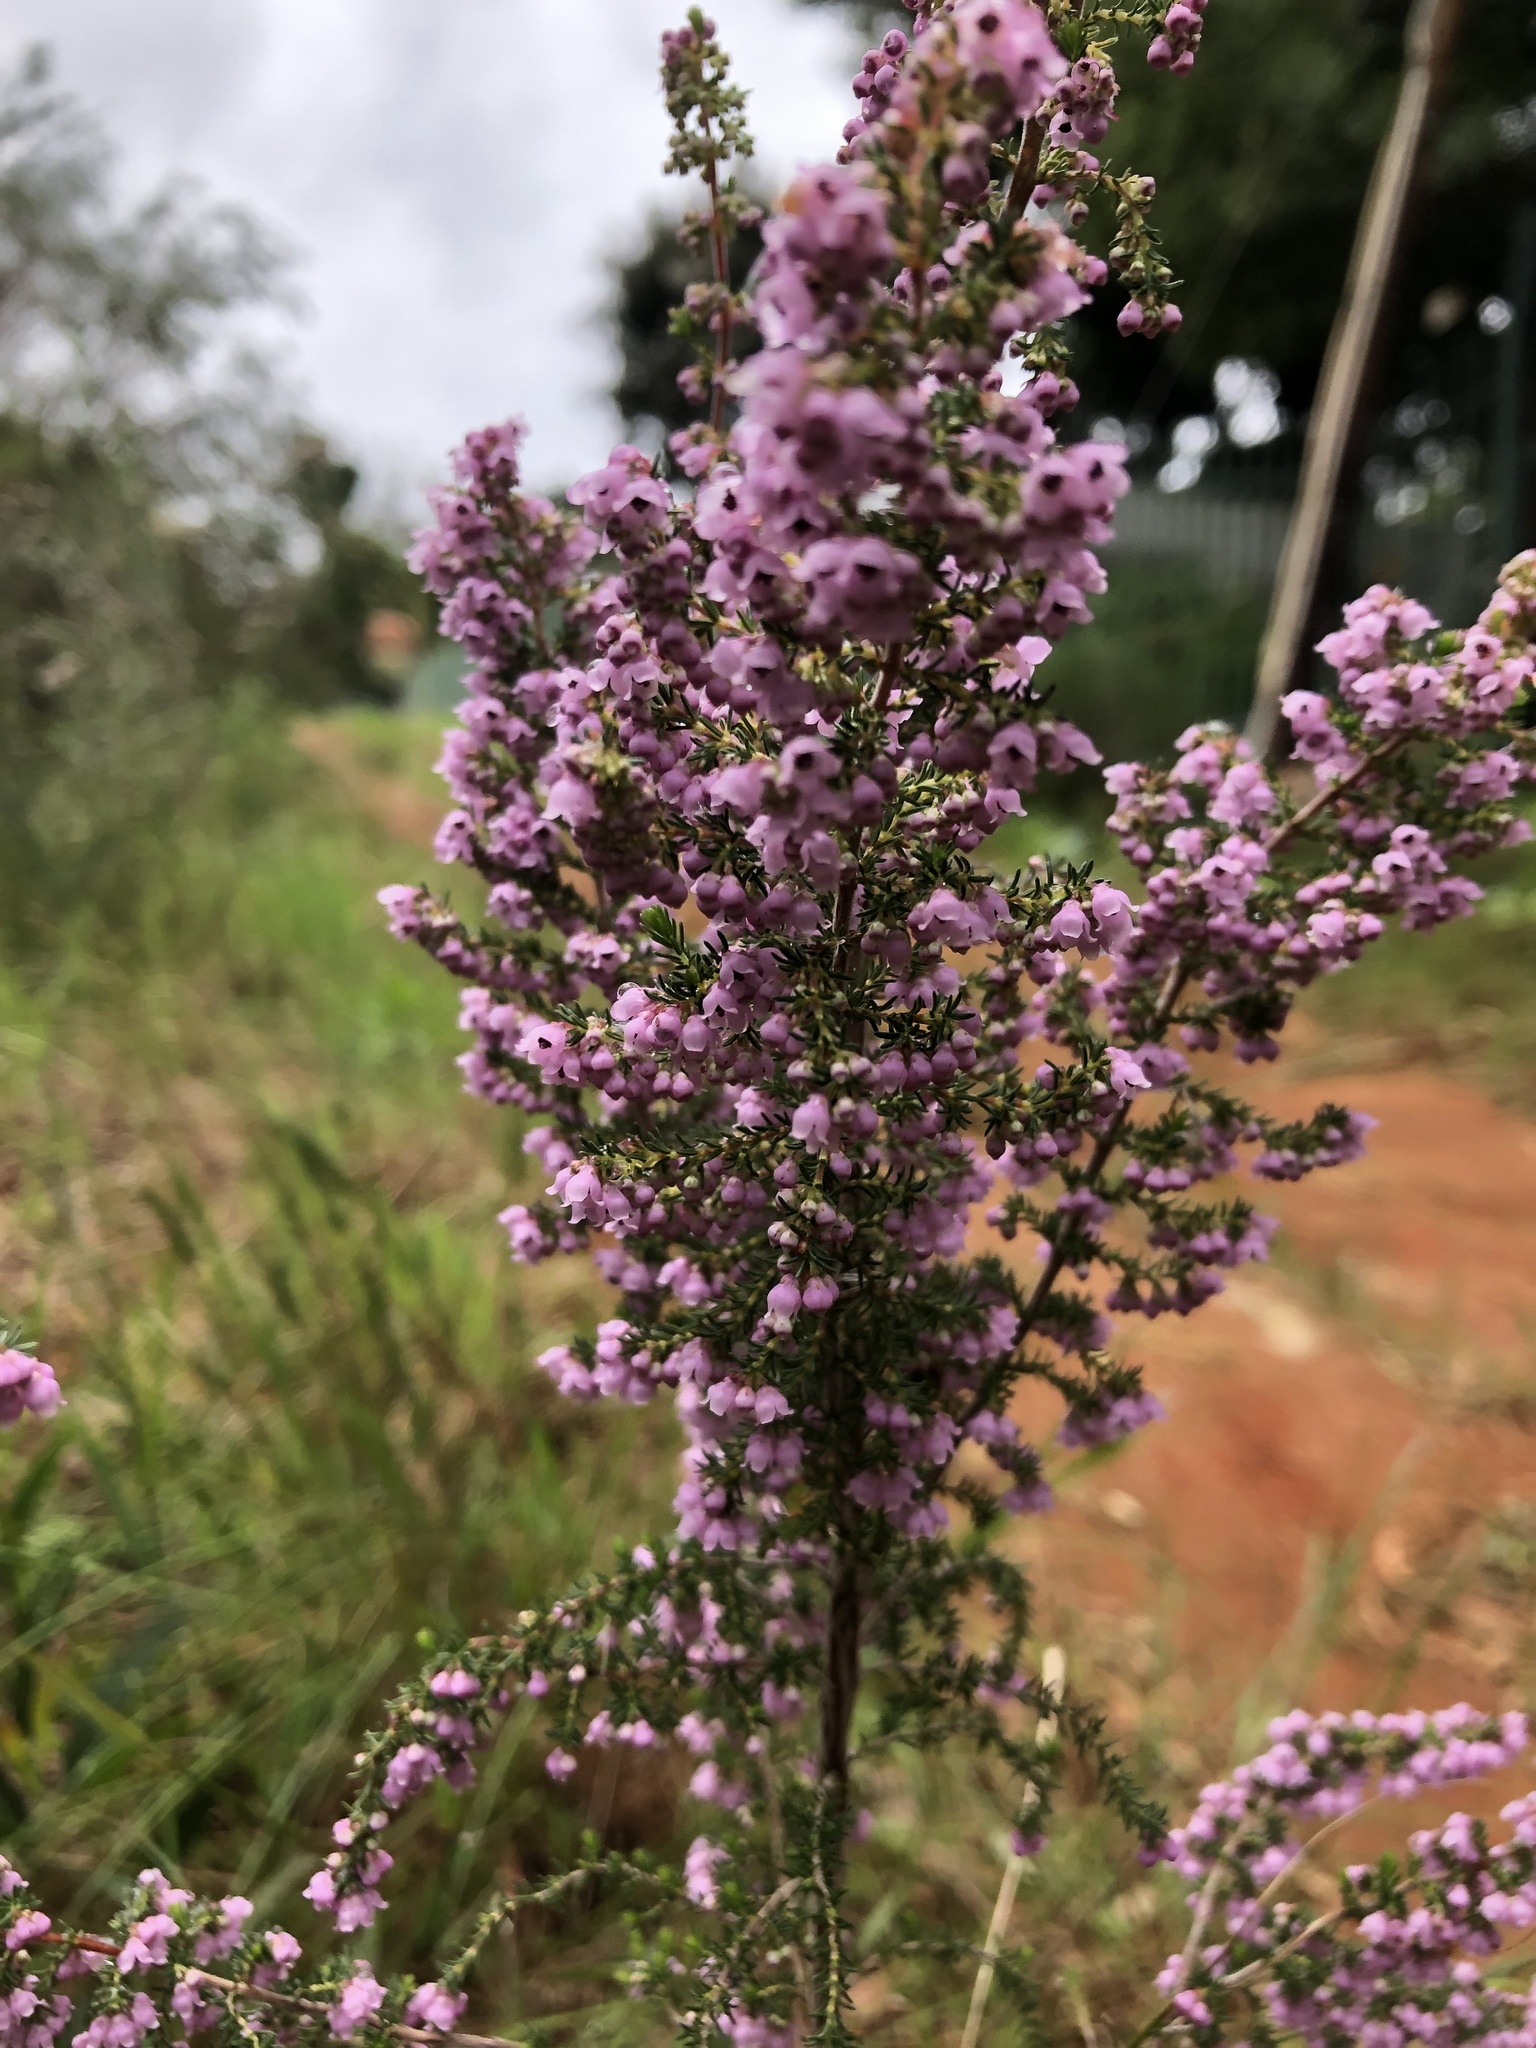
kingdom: Plantae
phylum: Tracheophyta
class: Magnoliopsida
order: Ericales
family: Ericaceae
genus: Erica
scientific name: Erica mauritanica
